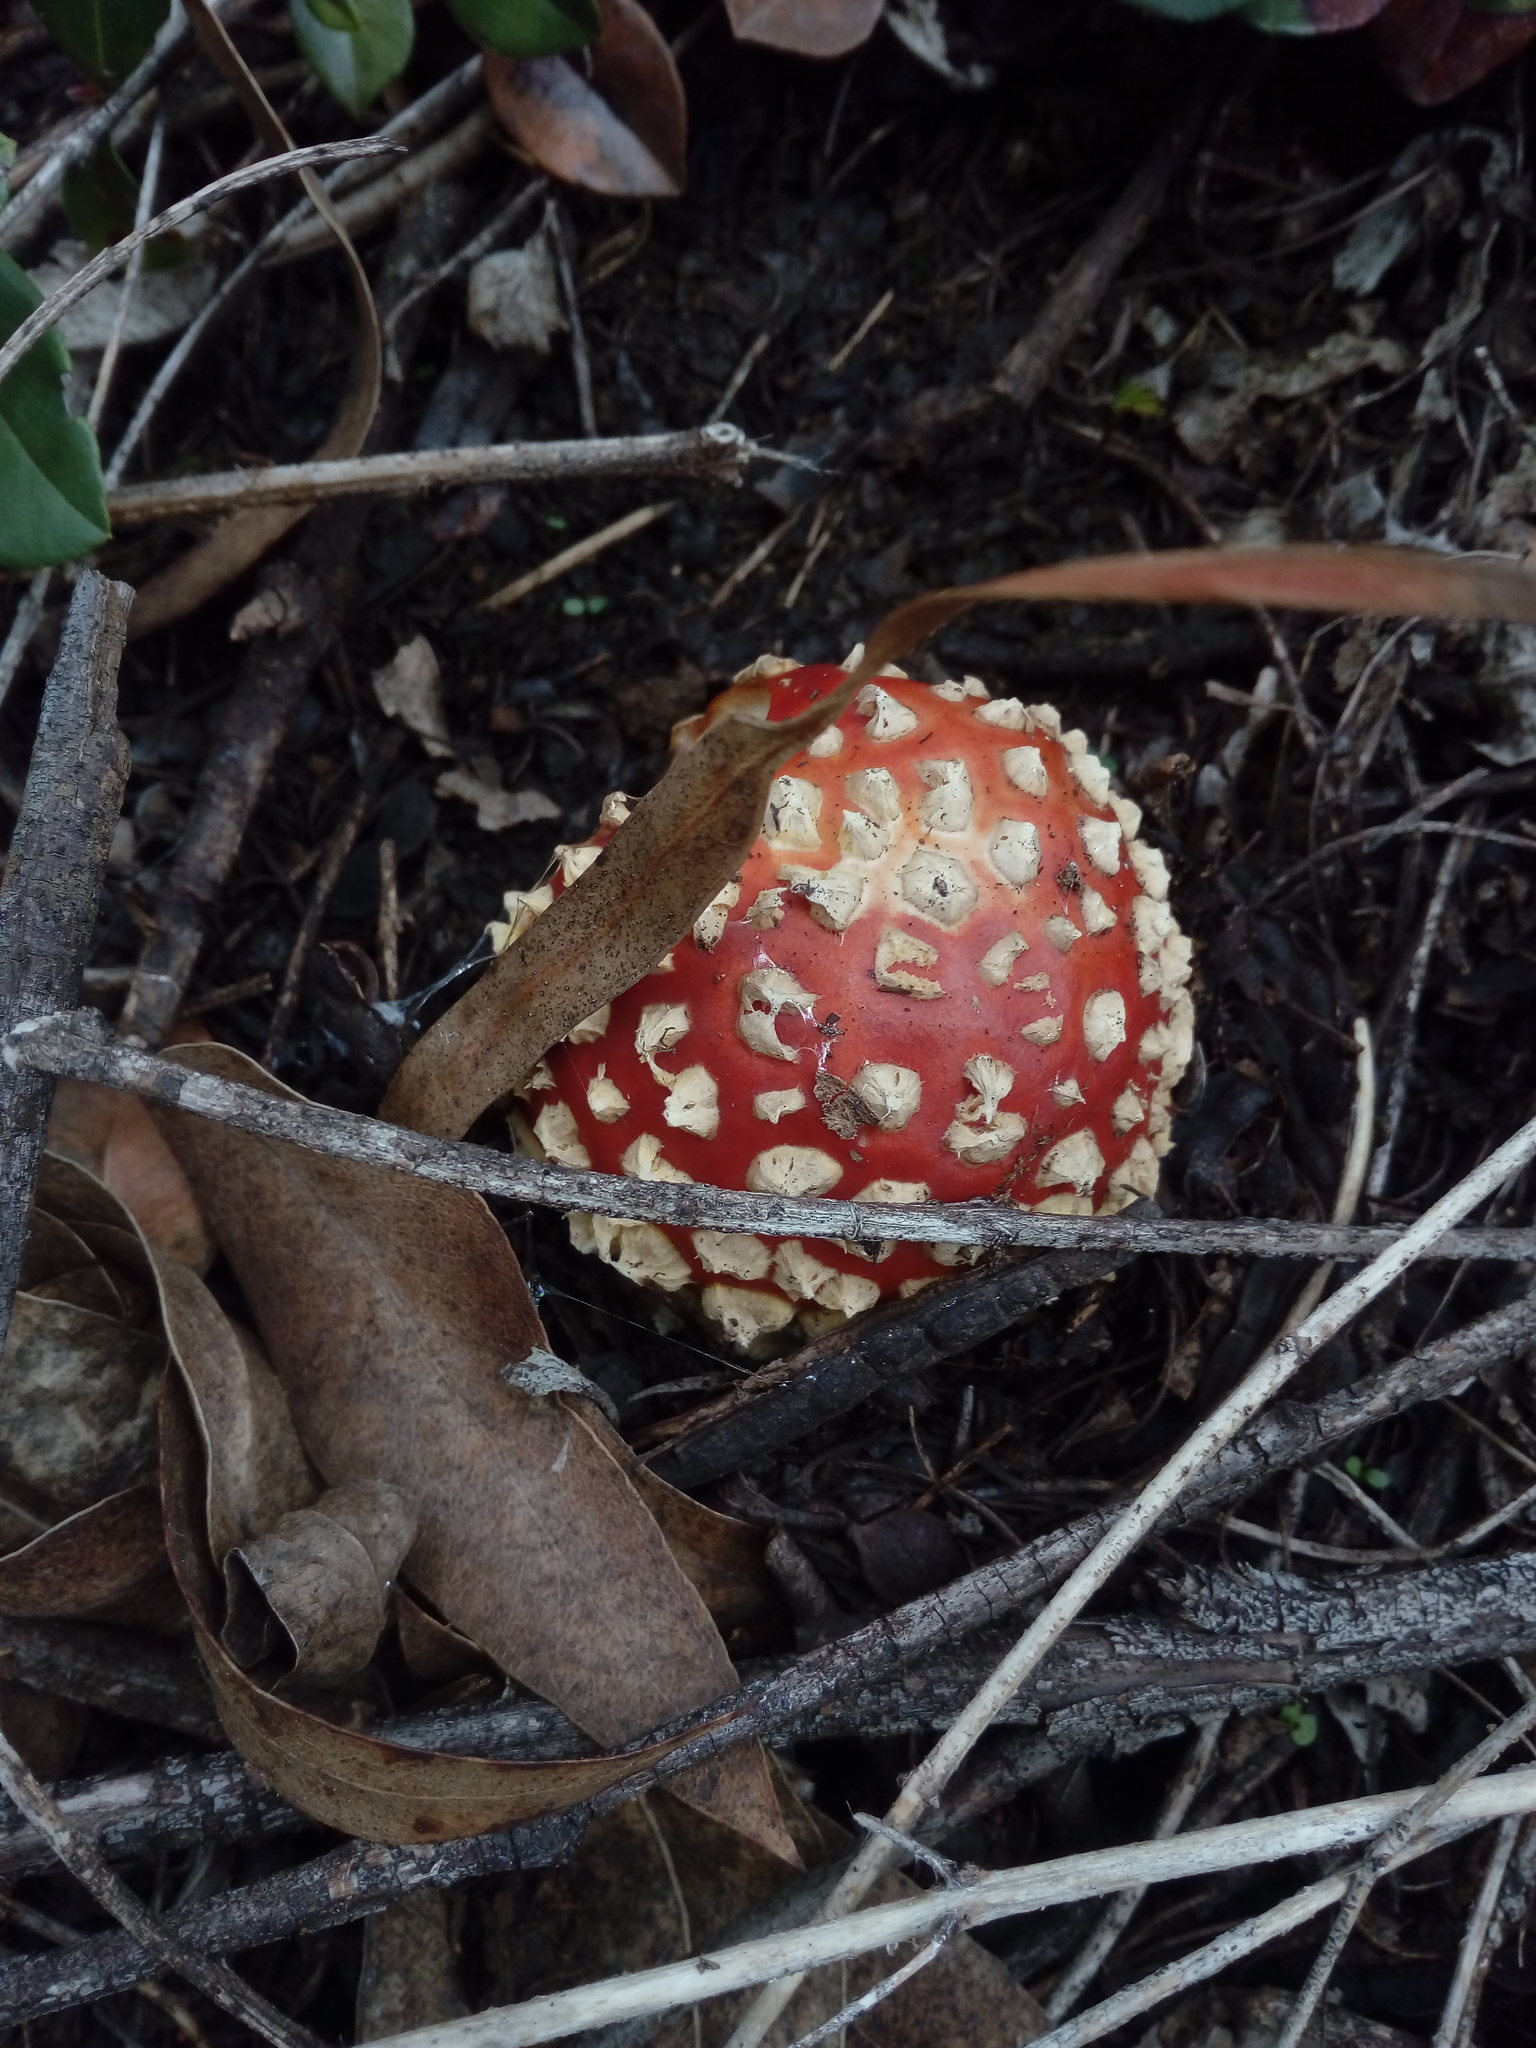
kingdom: Fungi
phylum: Basidiomycota
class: Agaricomycetes
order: Agaricales
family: Amanitaceae
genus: Amanita
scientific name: Amanita muscaria
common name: Fly agaric
